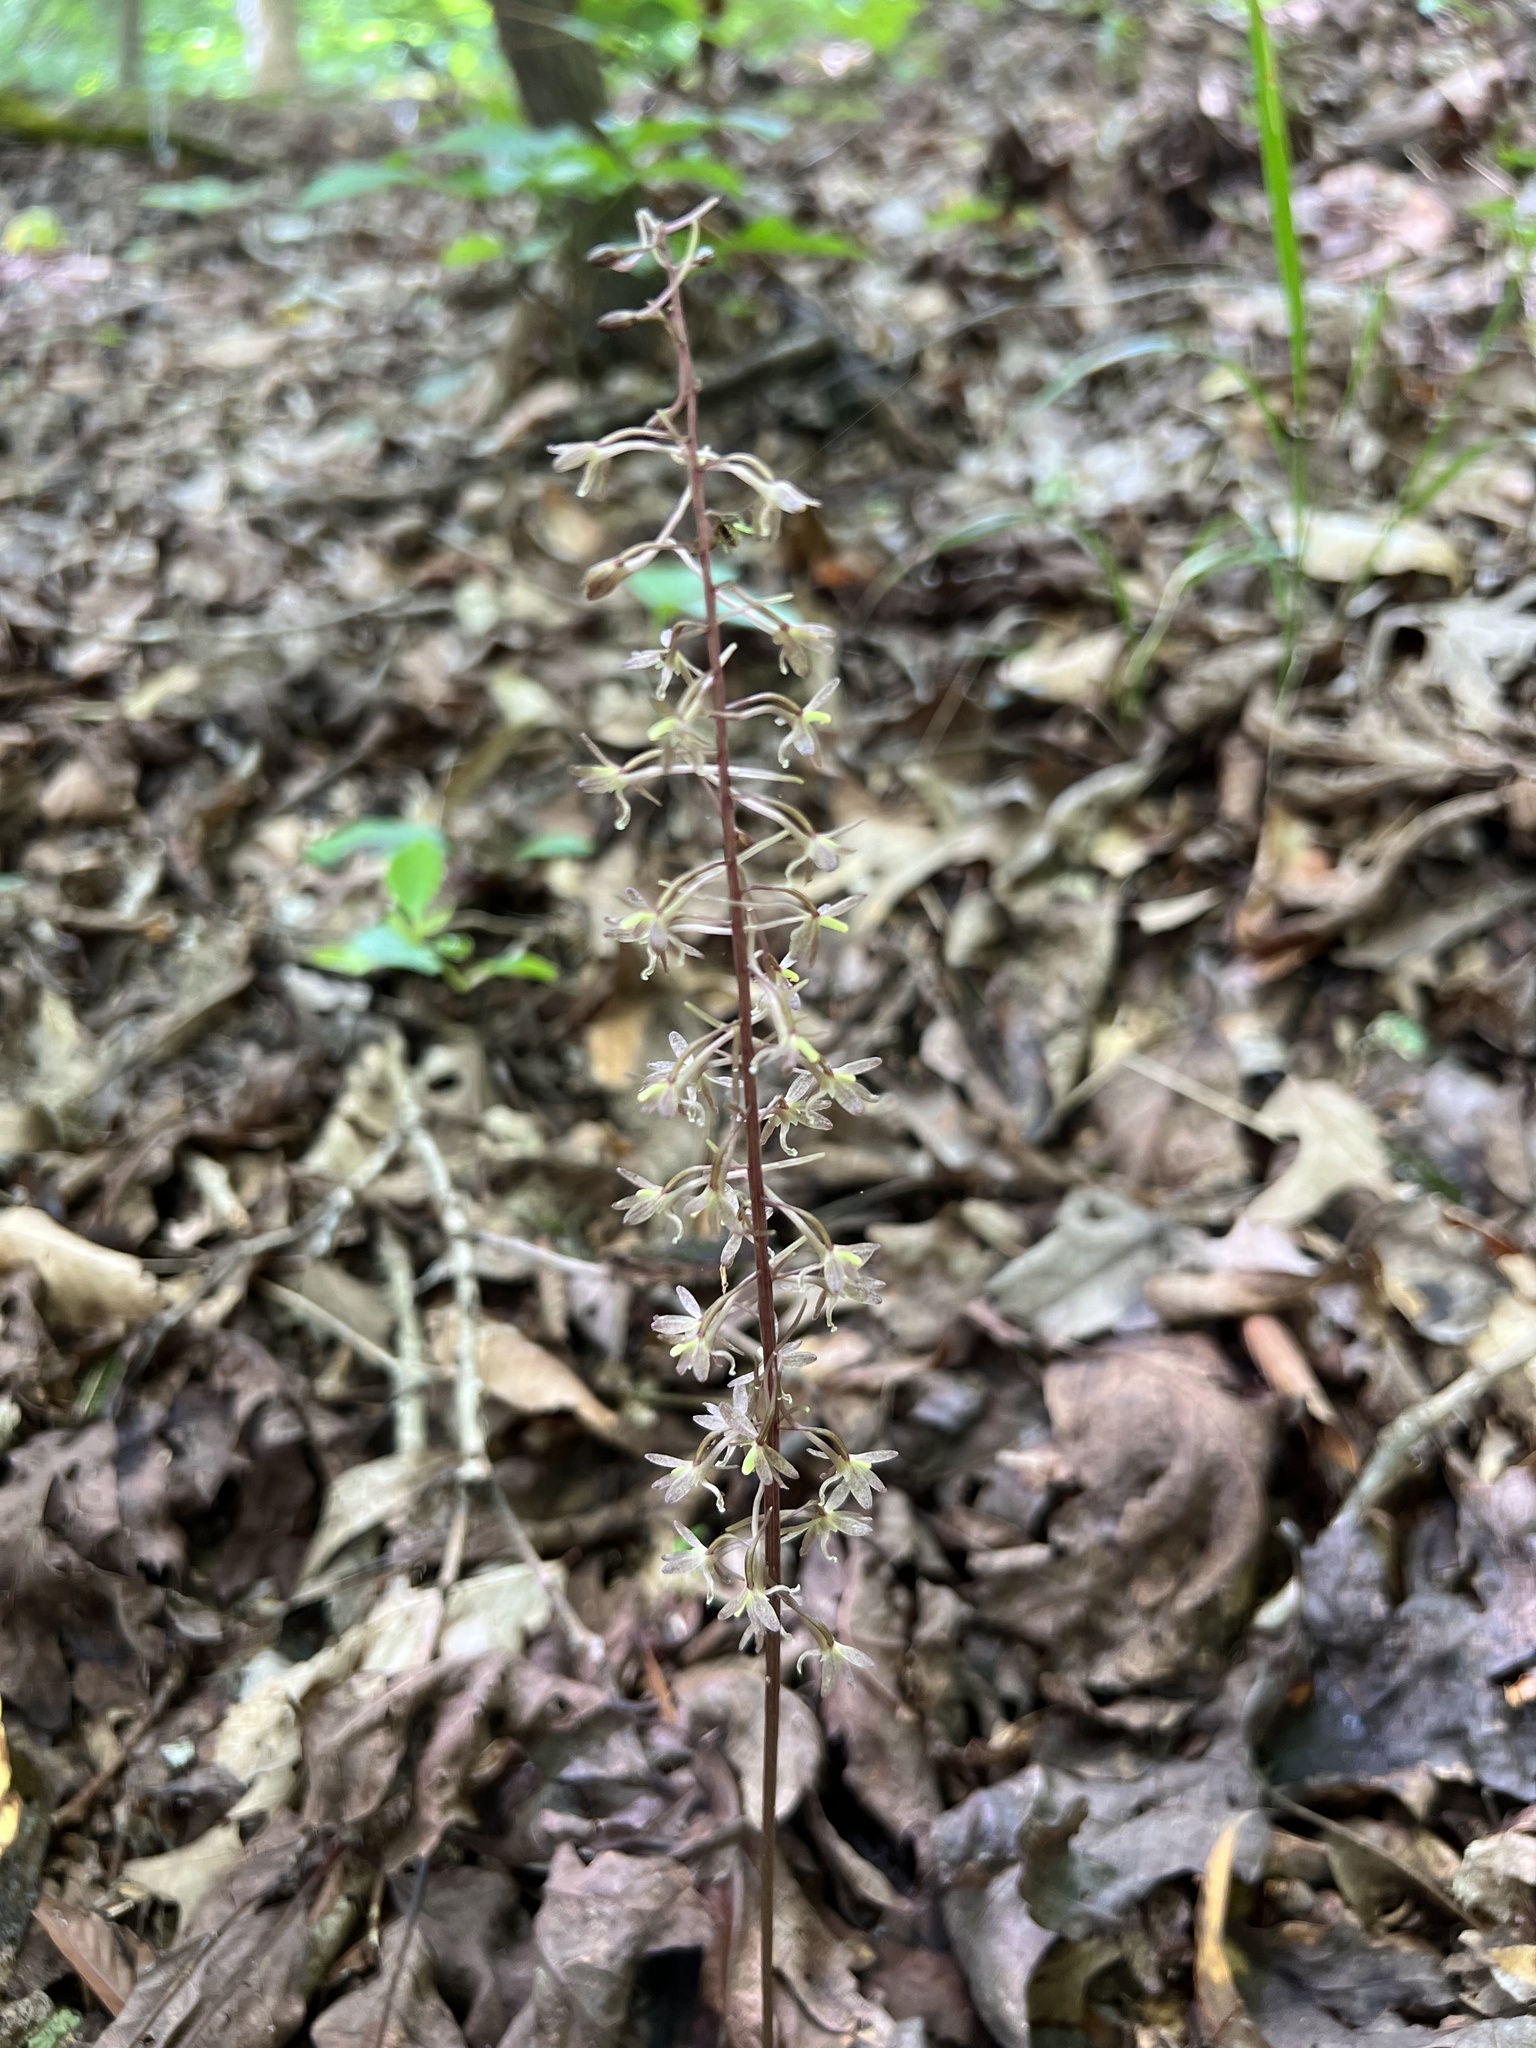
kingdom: Plantae
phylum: Tracheophyta
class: Liliopsida
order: Asparagales
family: Orchidaceae
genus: Tipularia
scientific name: Tipularia discolor
